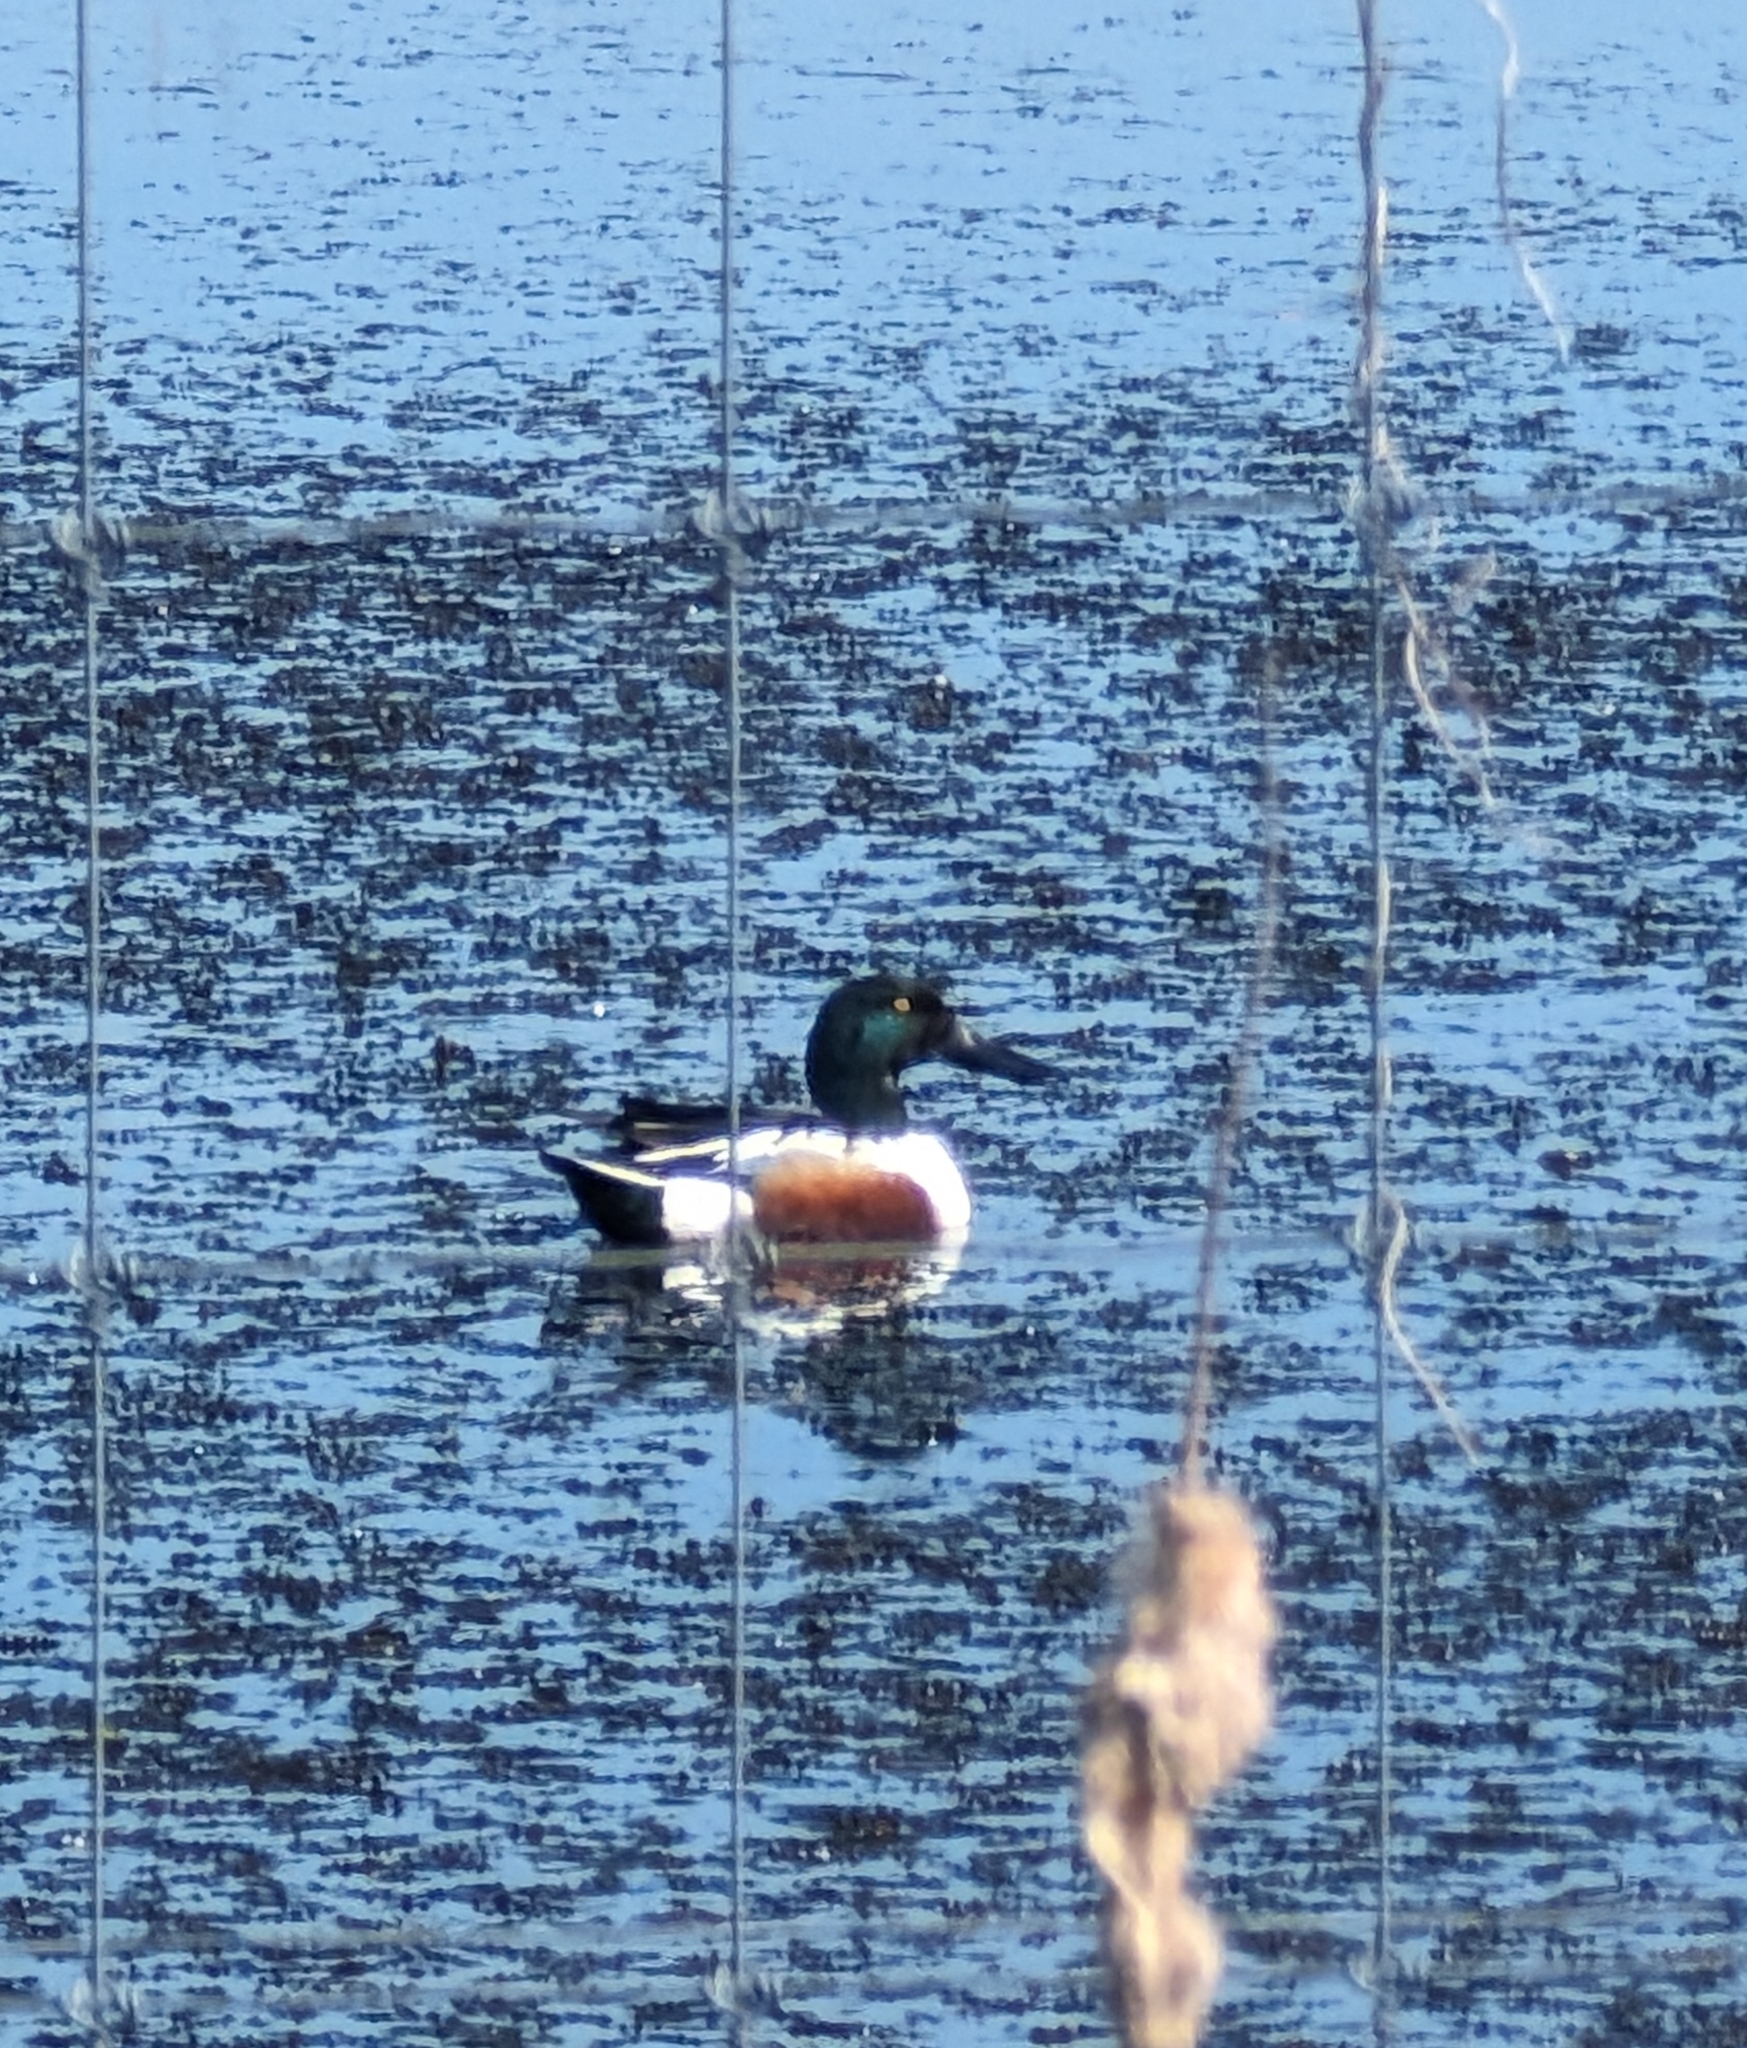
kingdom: Animalia
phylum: Chordata
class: Aves
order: Anseriformes
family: Anatidae
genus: Spatula
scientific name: Spatula clypeata
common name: Northern shoveler
